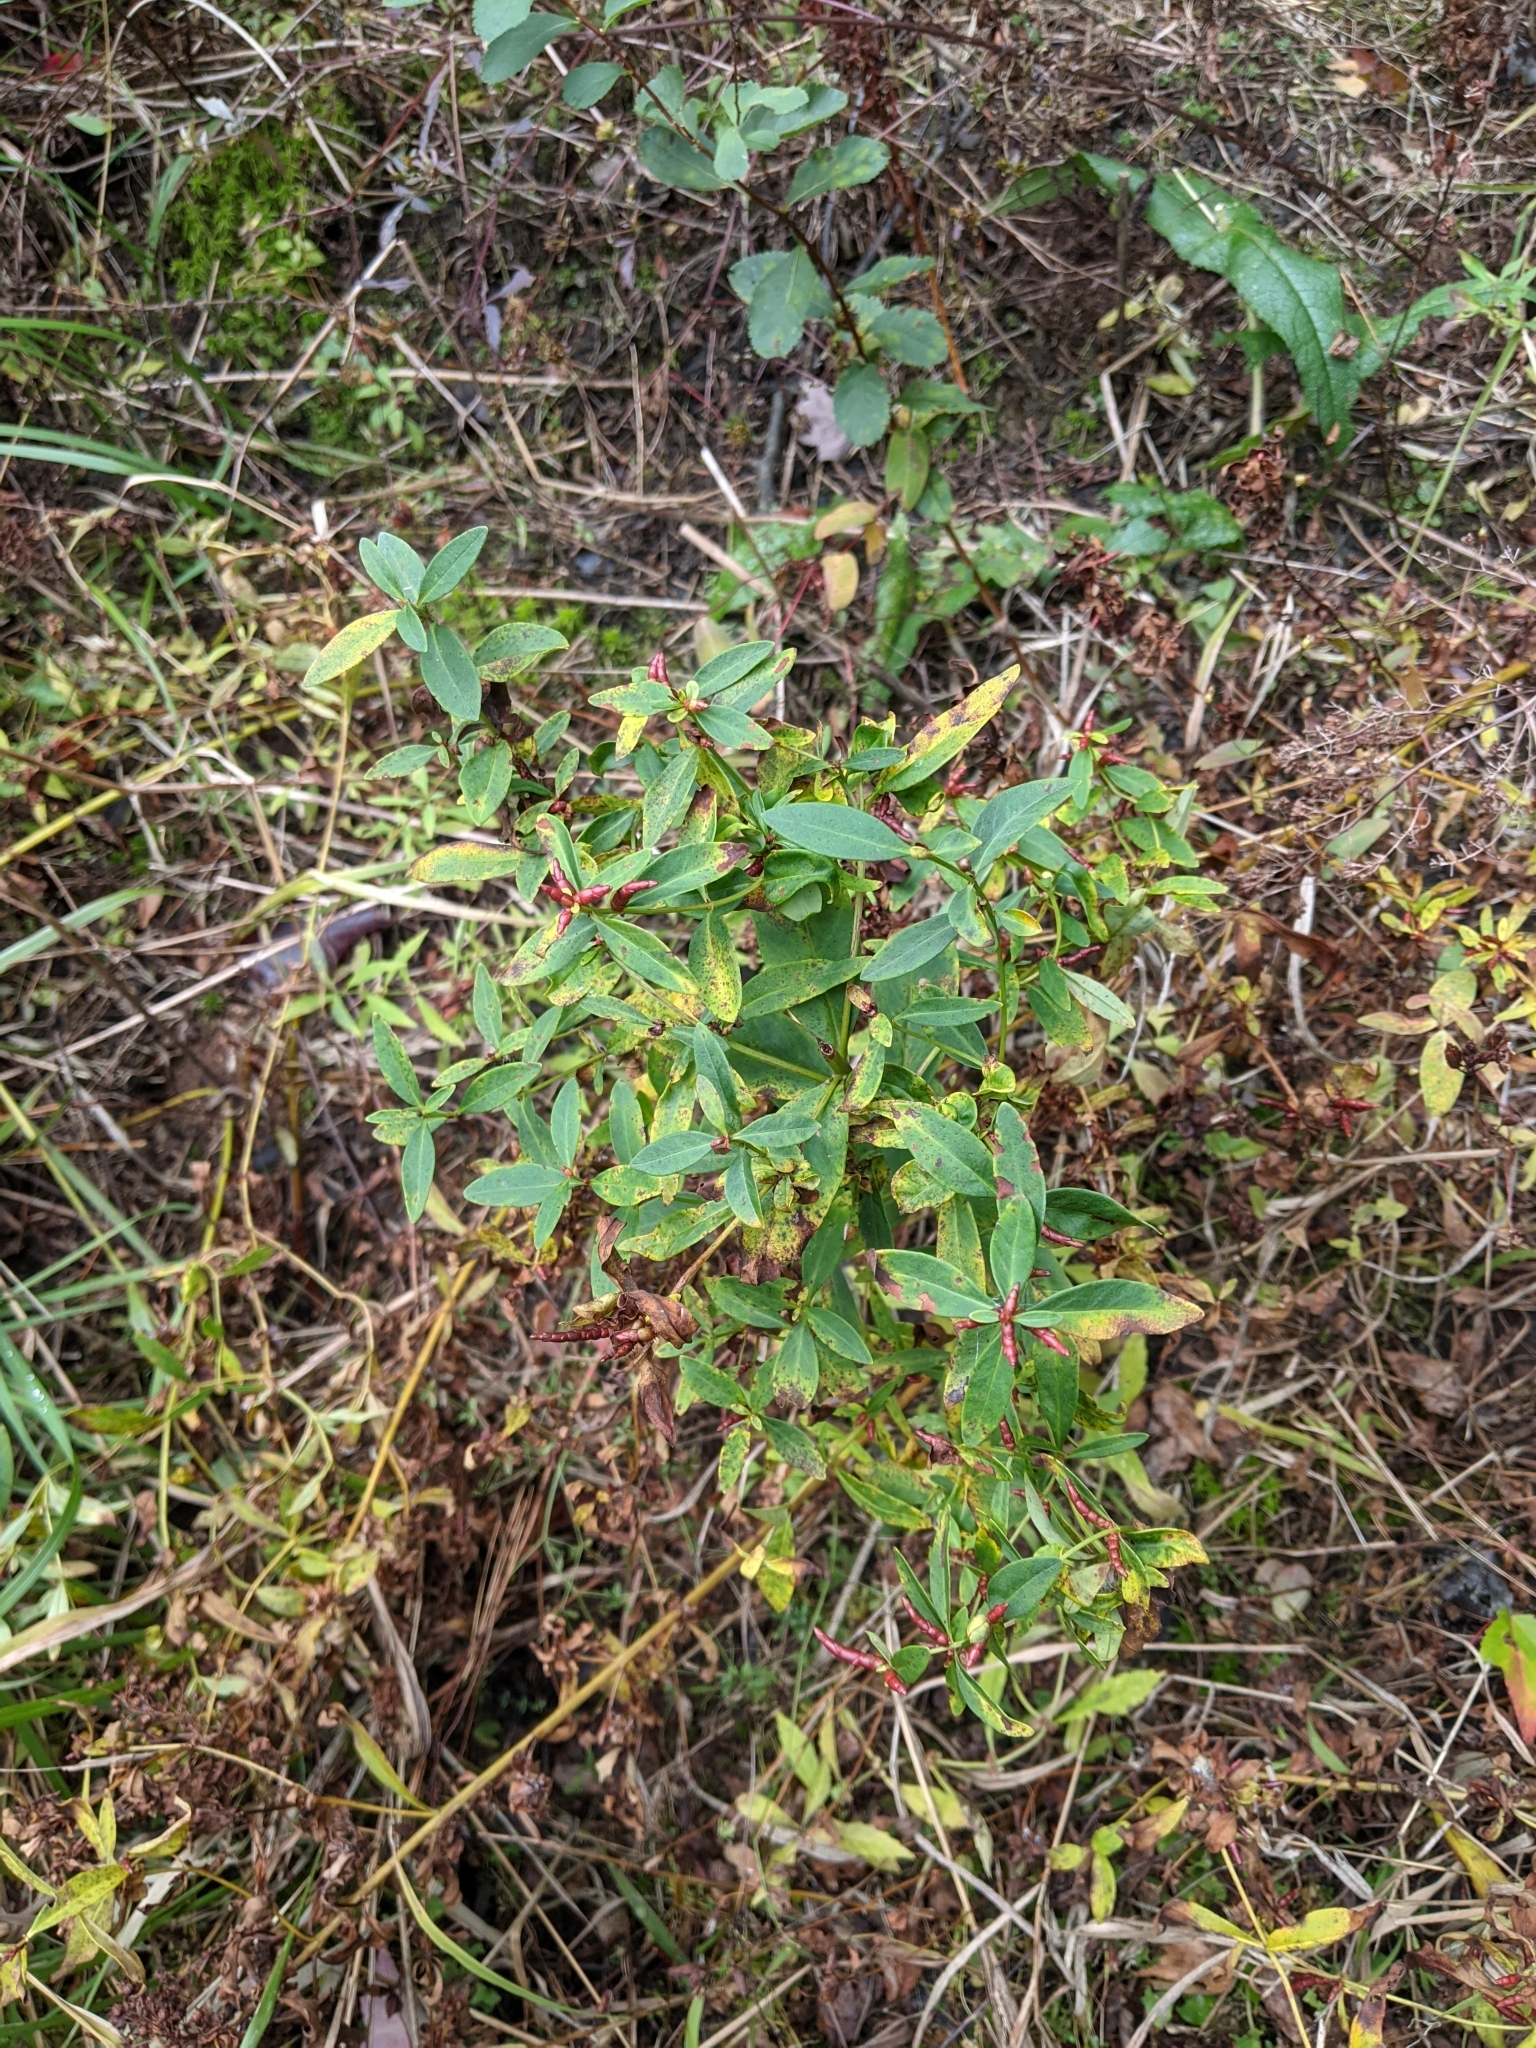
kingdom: Plantae
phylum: Tracheophyta
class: Magnoliopsida
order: Ericales
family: Primulaceae
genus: Lysimachia
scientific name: Lysimachia terrestris
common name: Lake loosestrife
